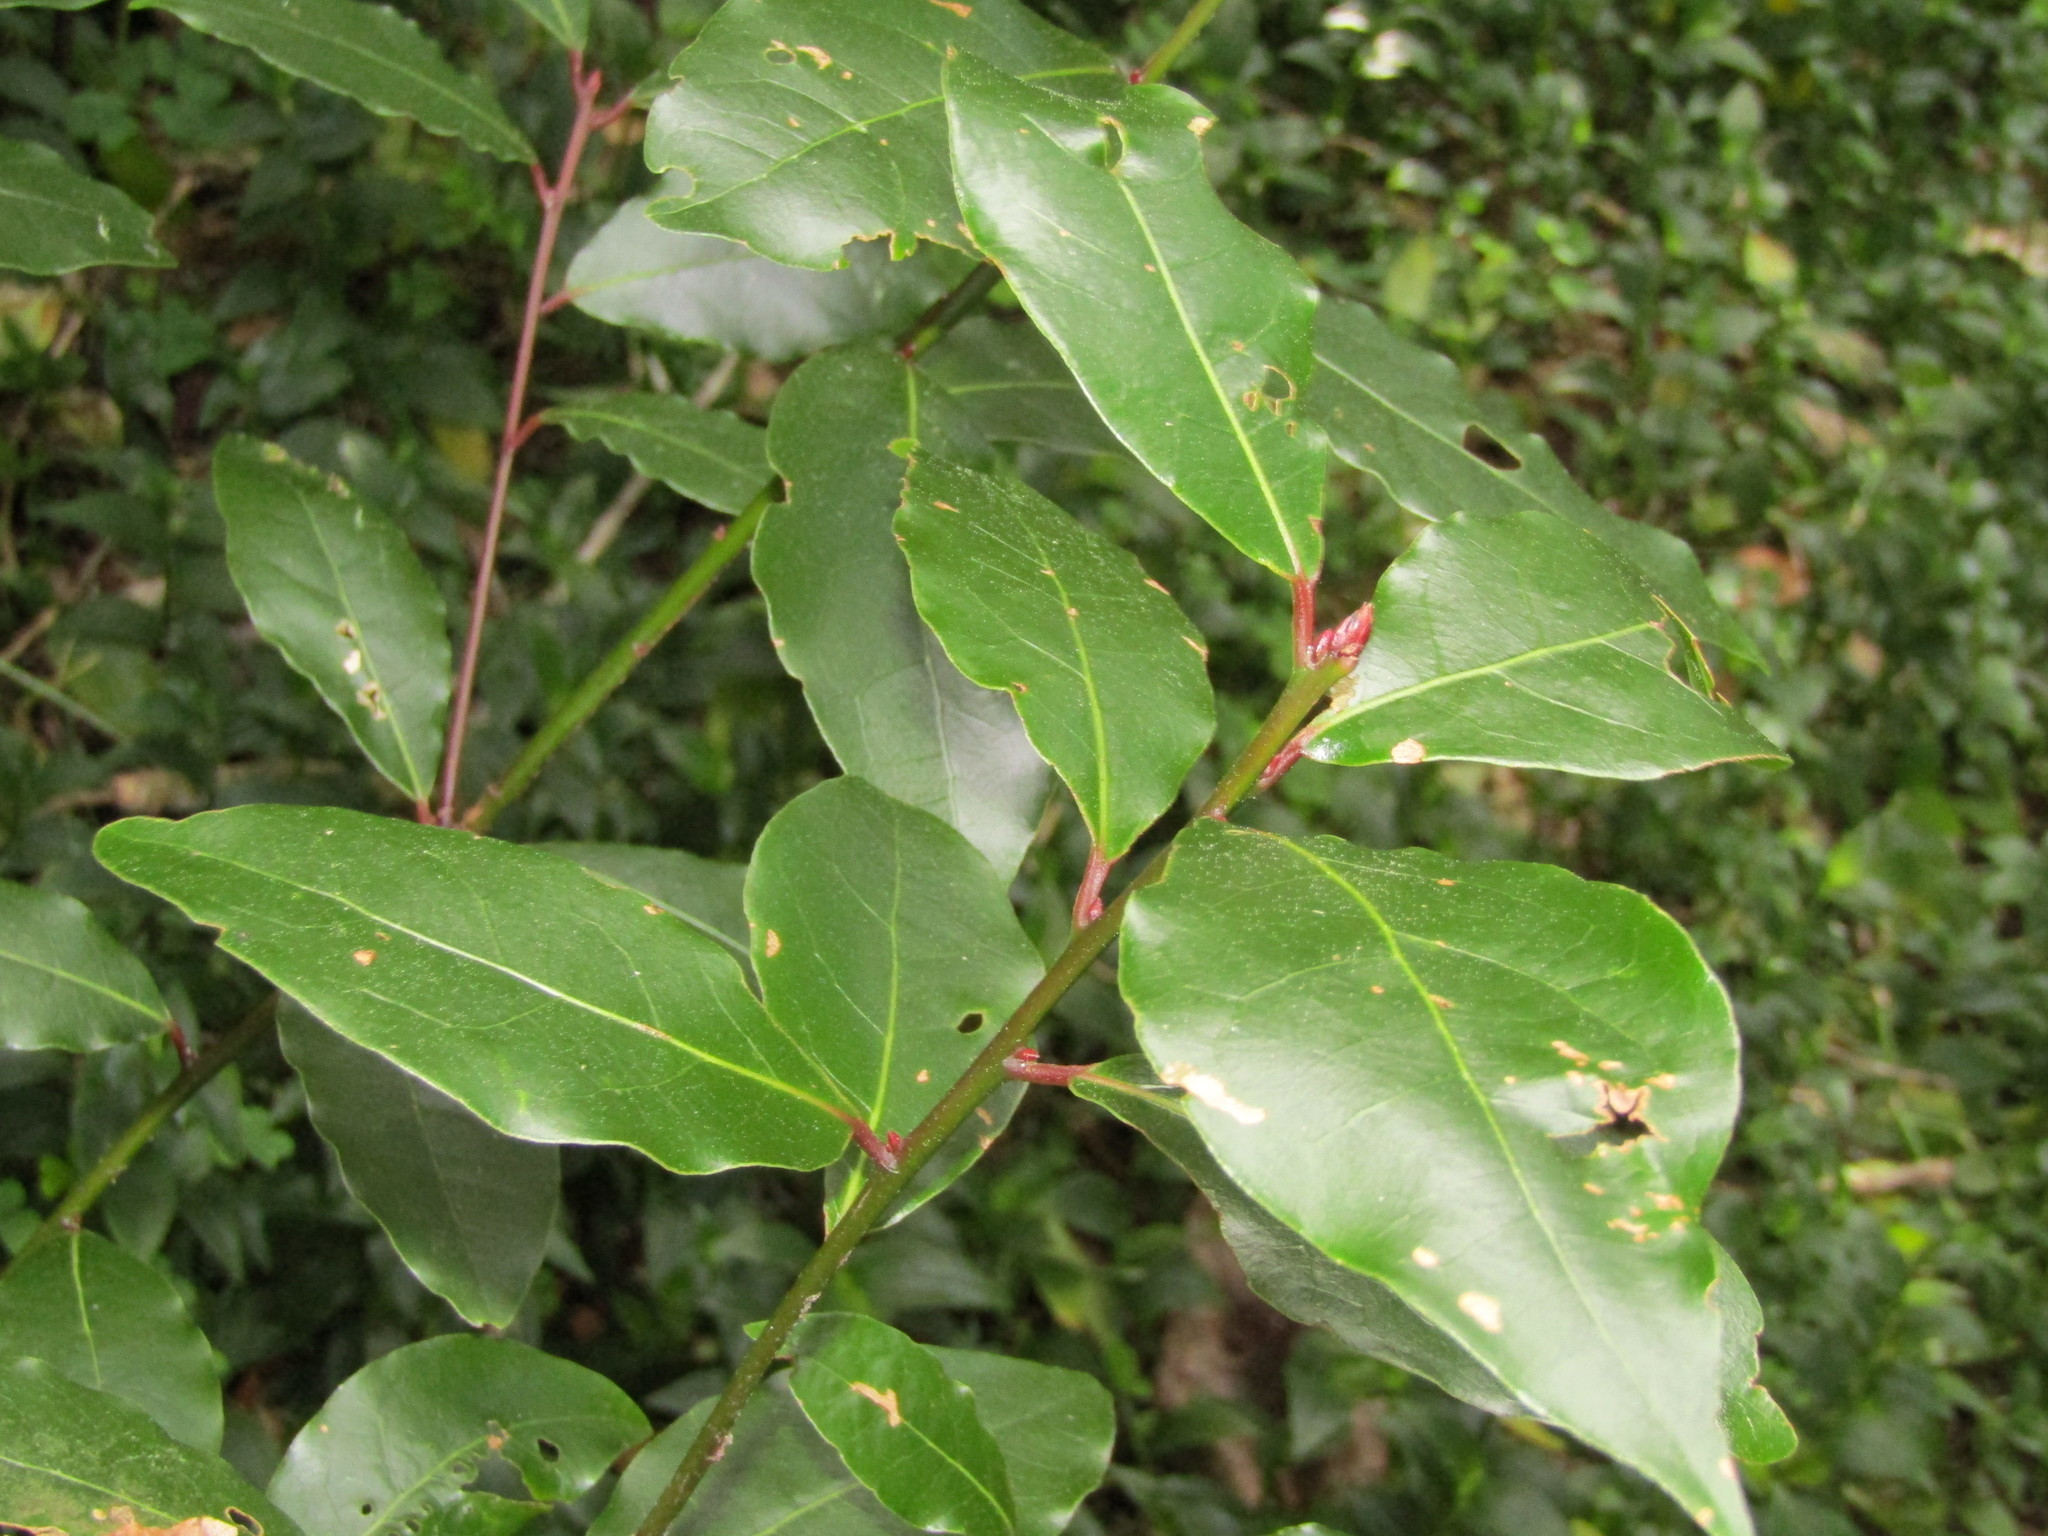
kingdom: Plantae
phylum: Tracheophyta
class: Magnoliopsida
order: Laurales
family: Lauraceae
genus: Laurus
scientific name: Laurus nobilis
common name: Bay
